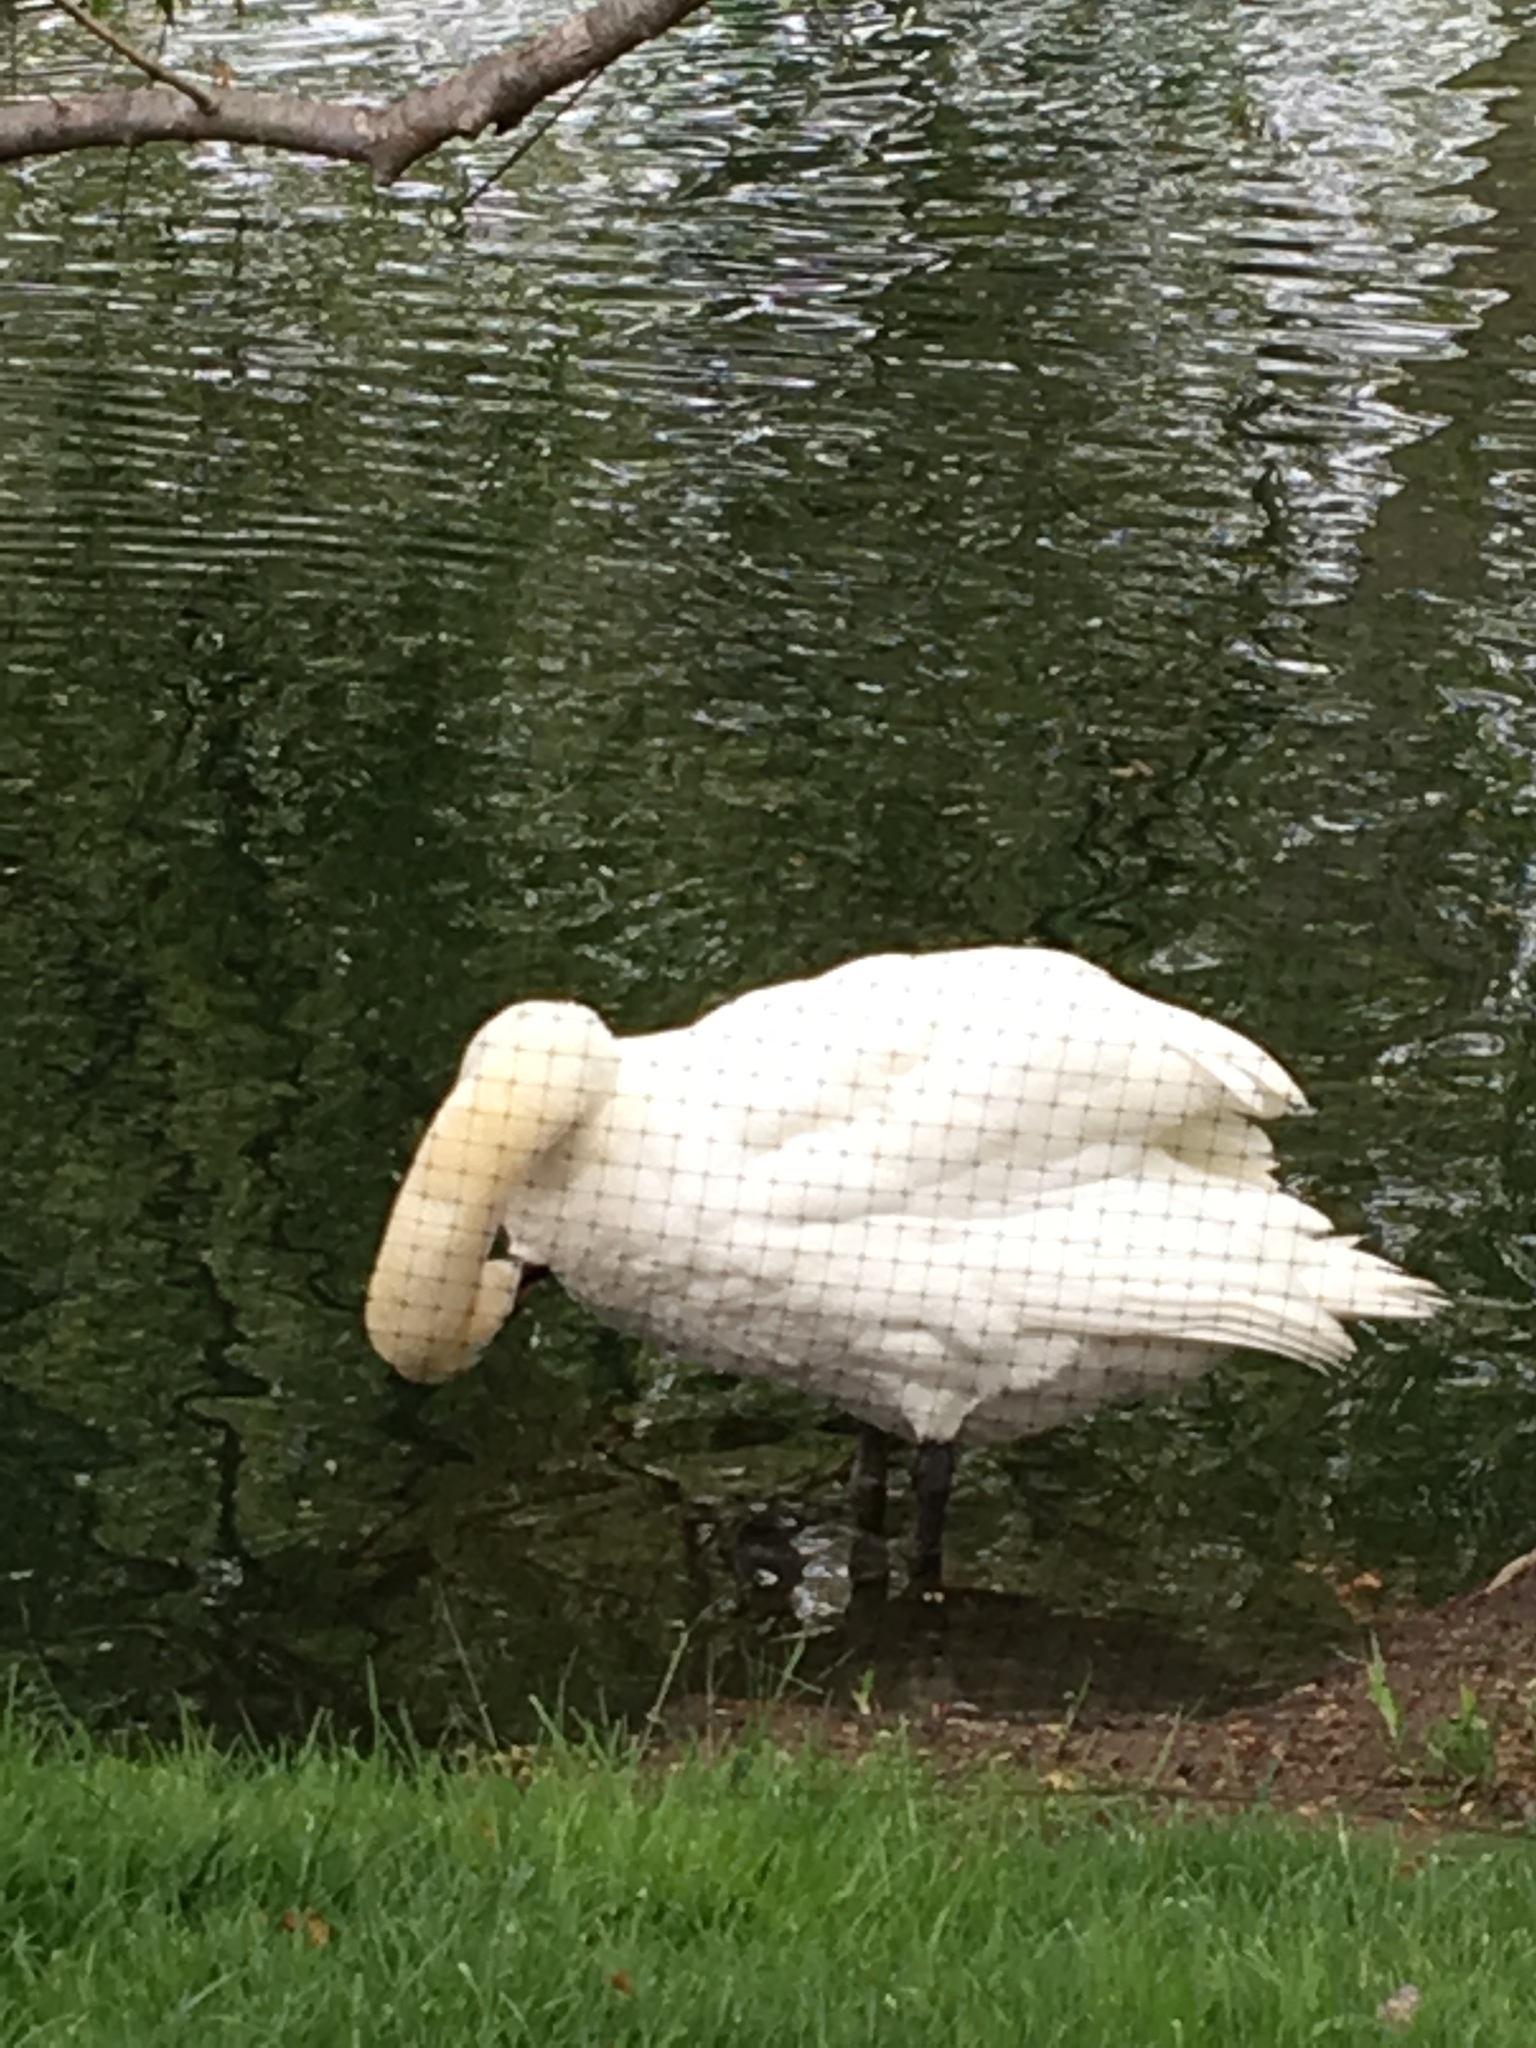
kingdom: Animalia
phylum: Chordata
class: Aves
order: Anseriformes
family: Anatidae
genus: Cygnus
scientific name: Cygnus olor
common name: Mute swan
